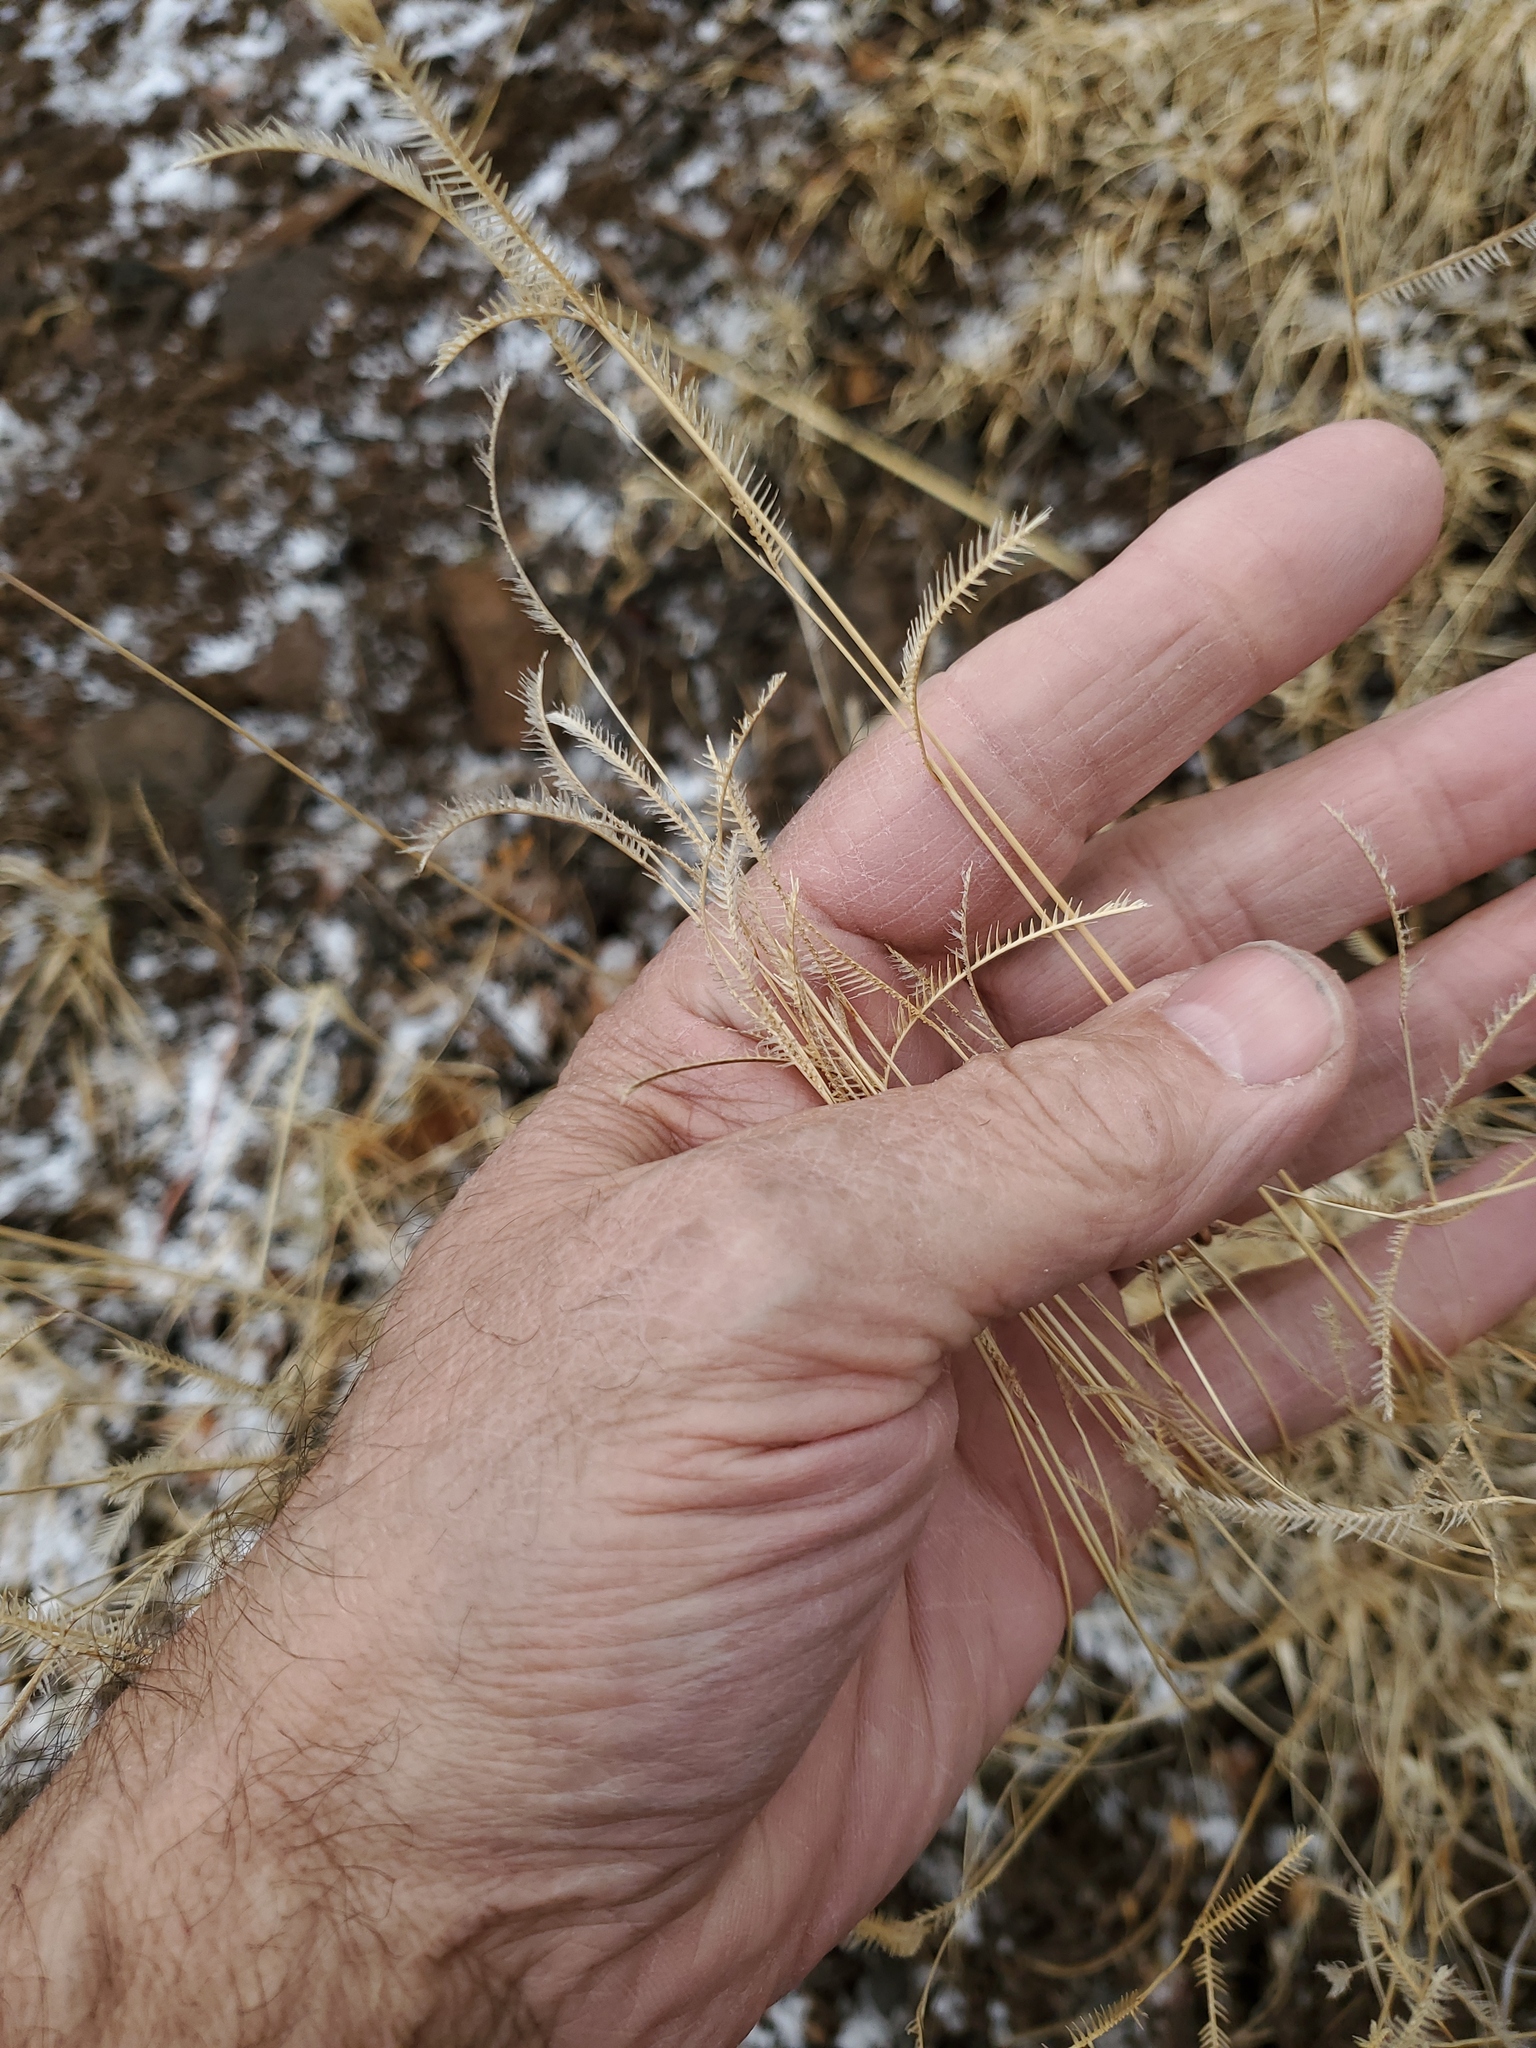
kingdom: Plantae
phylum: Tracheophyta
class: Liliopsida
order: Poales
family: Poaceae
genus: Bouteloua
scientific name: Bouteloua gracilis
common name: Blue grama
